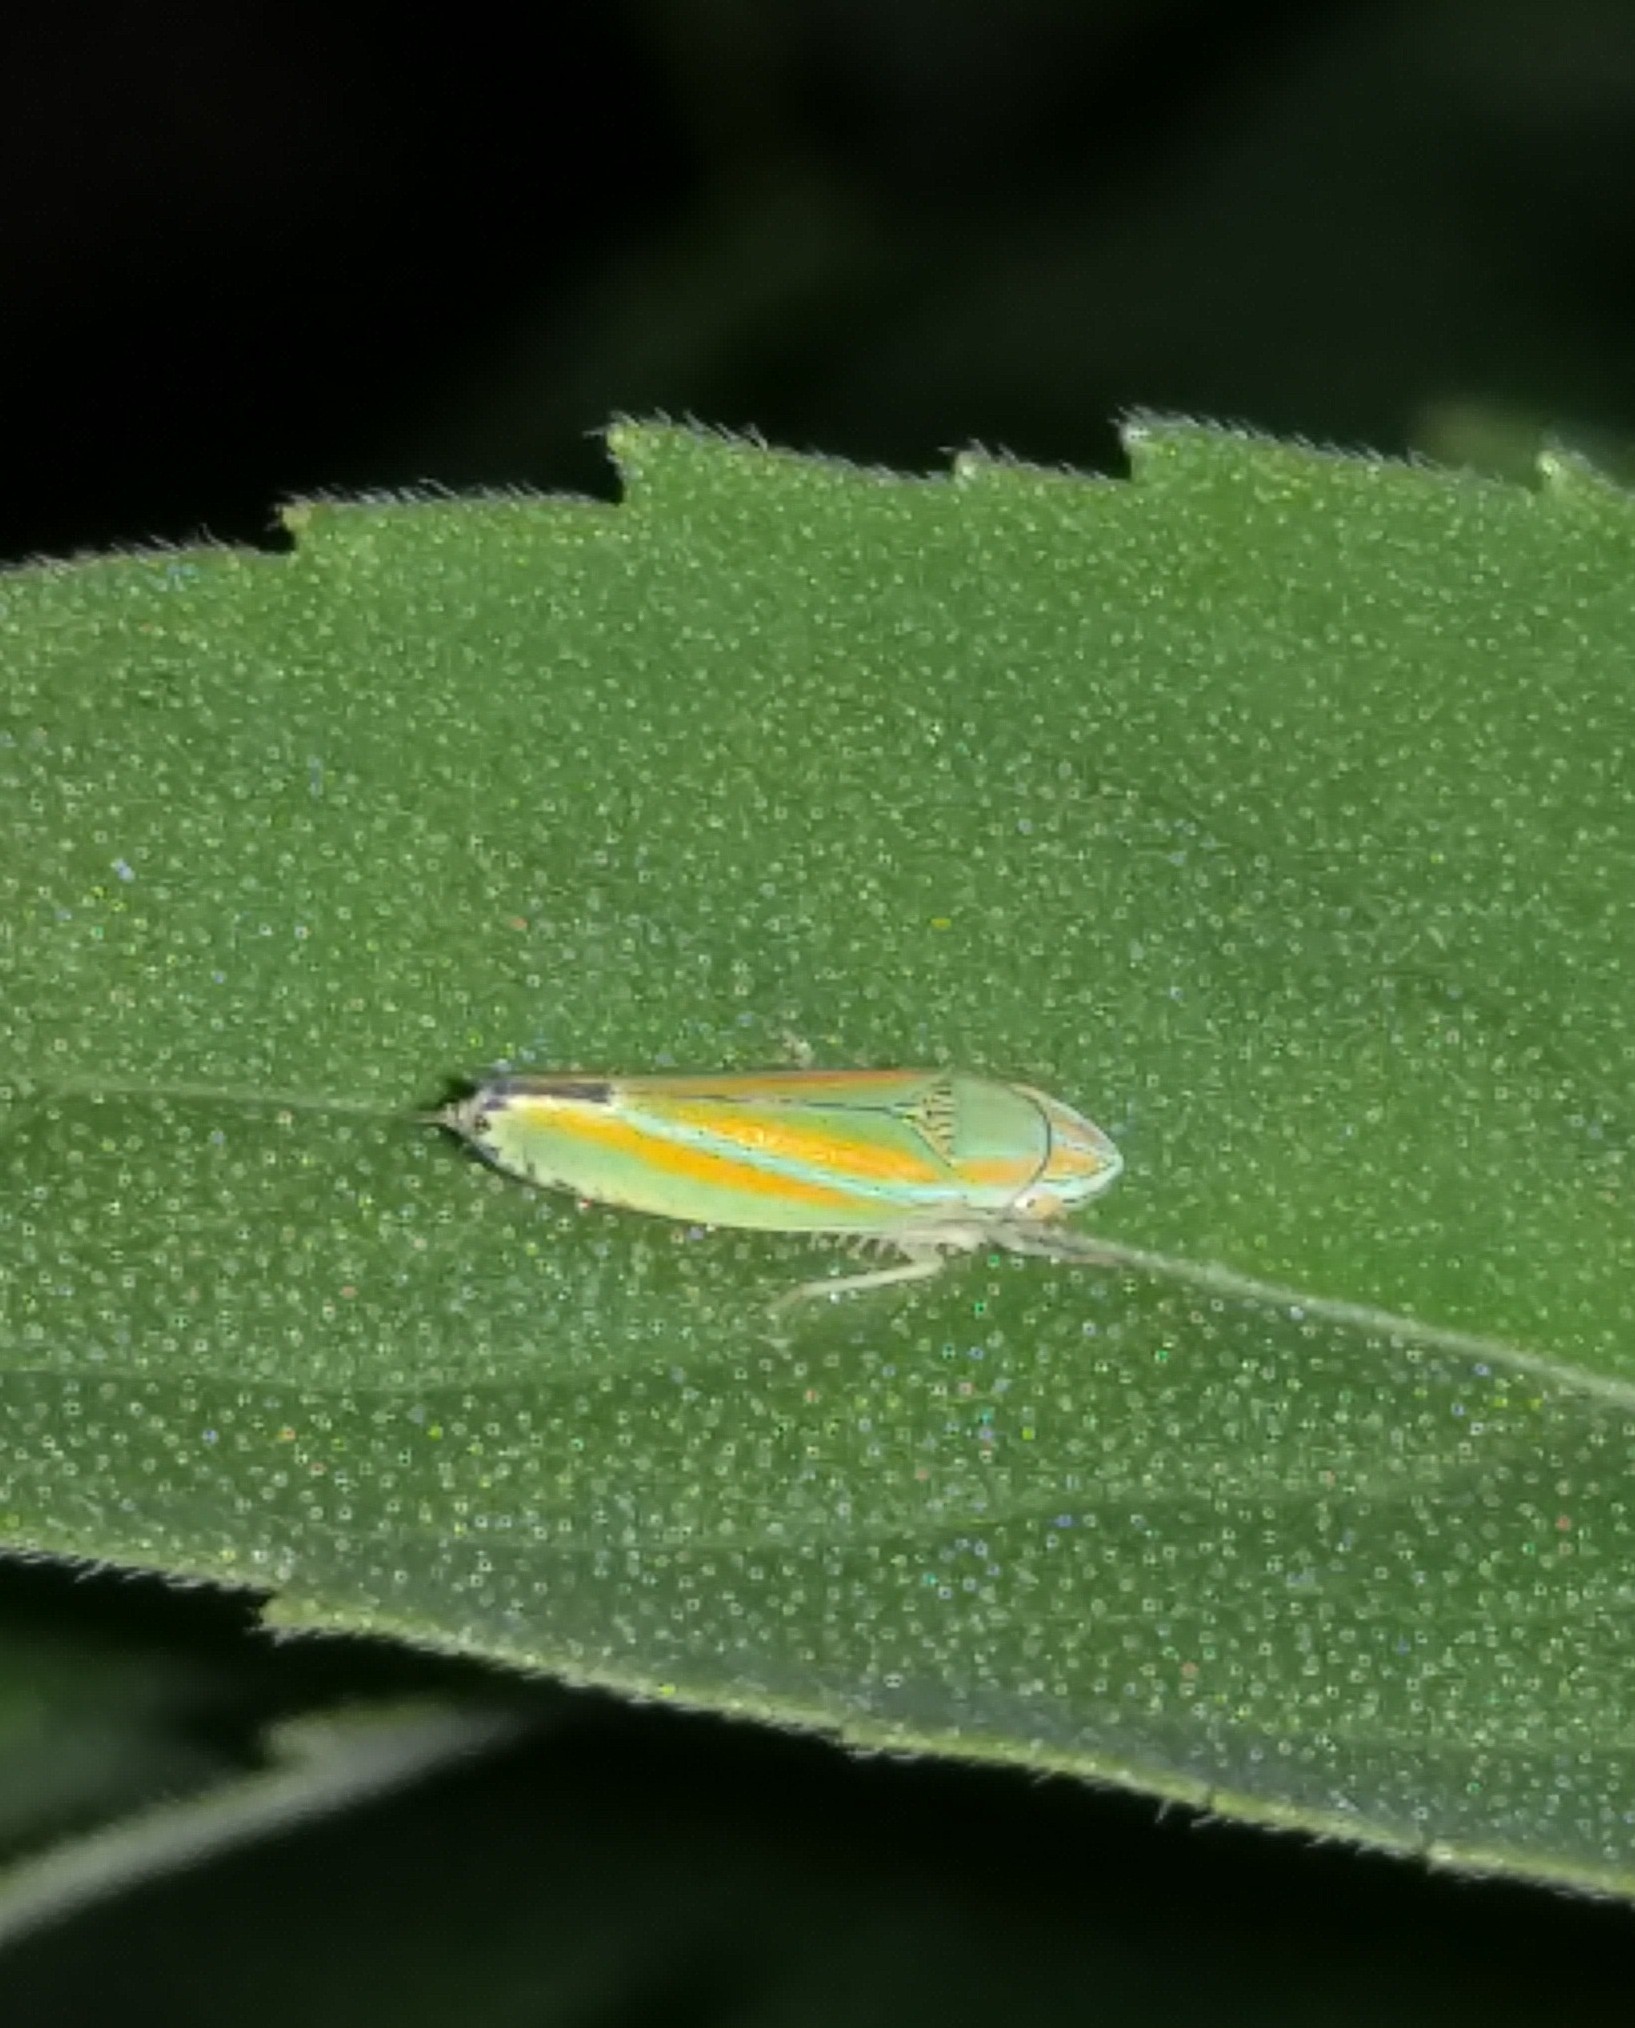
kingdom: Animalia
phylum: Arthropoda
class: Insecta
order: Hemiptera
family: Cicadellidae
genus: Graphocephala
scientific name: Graphocephala versuta
